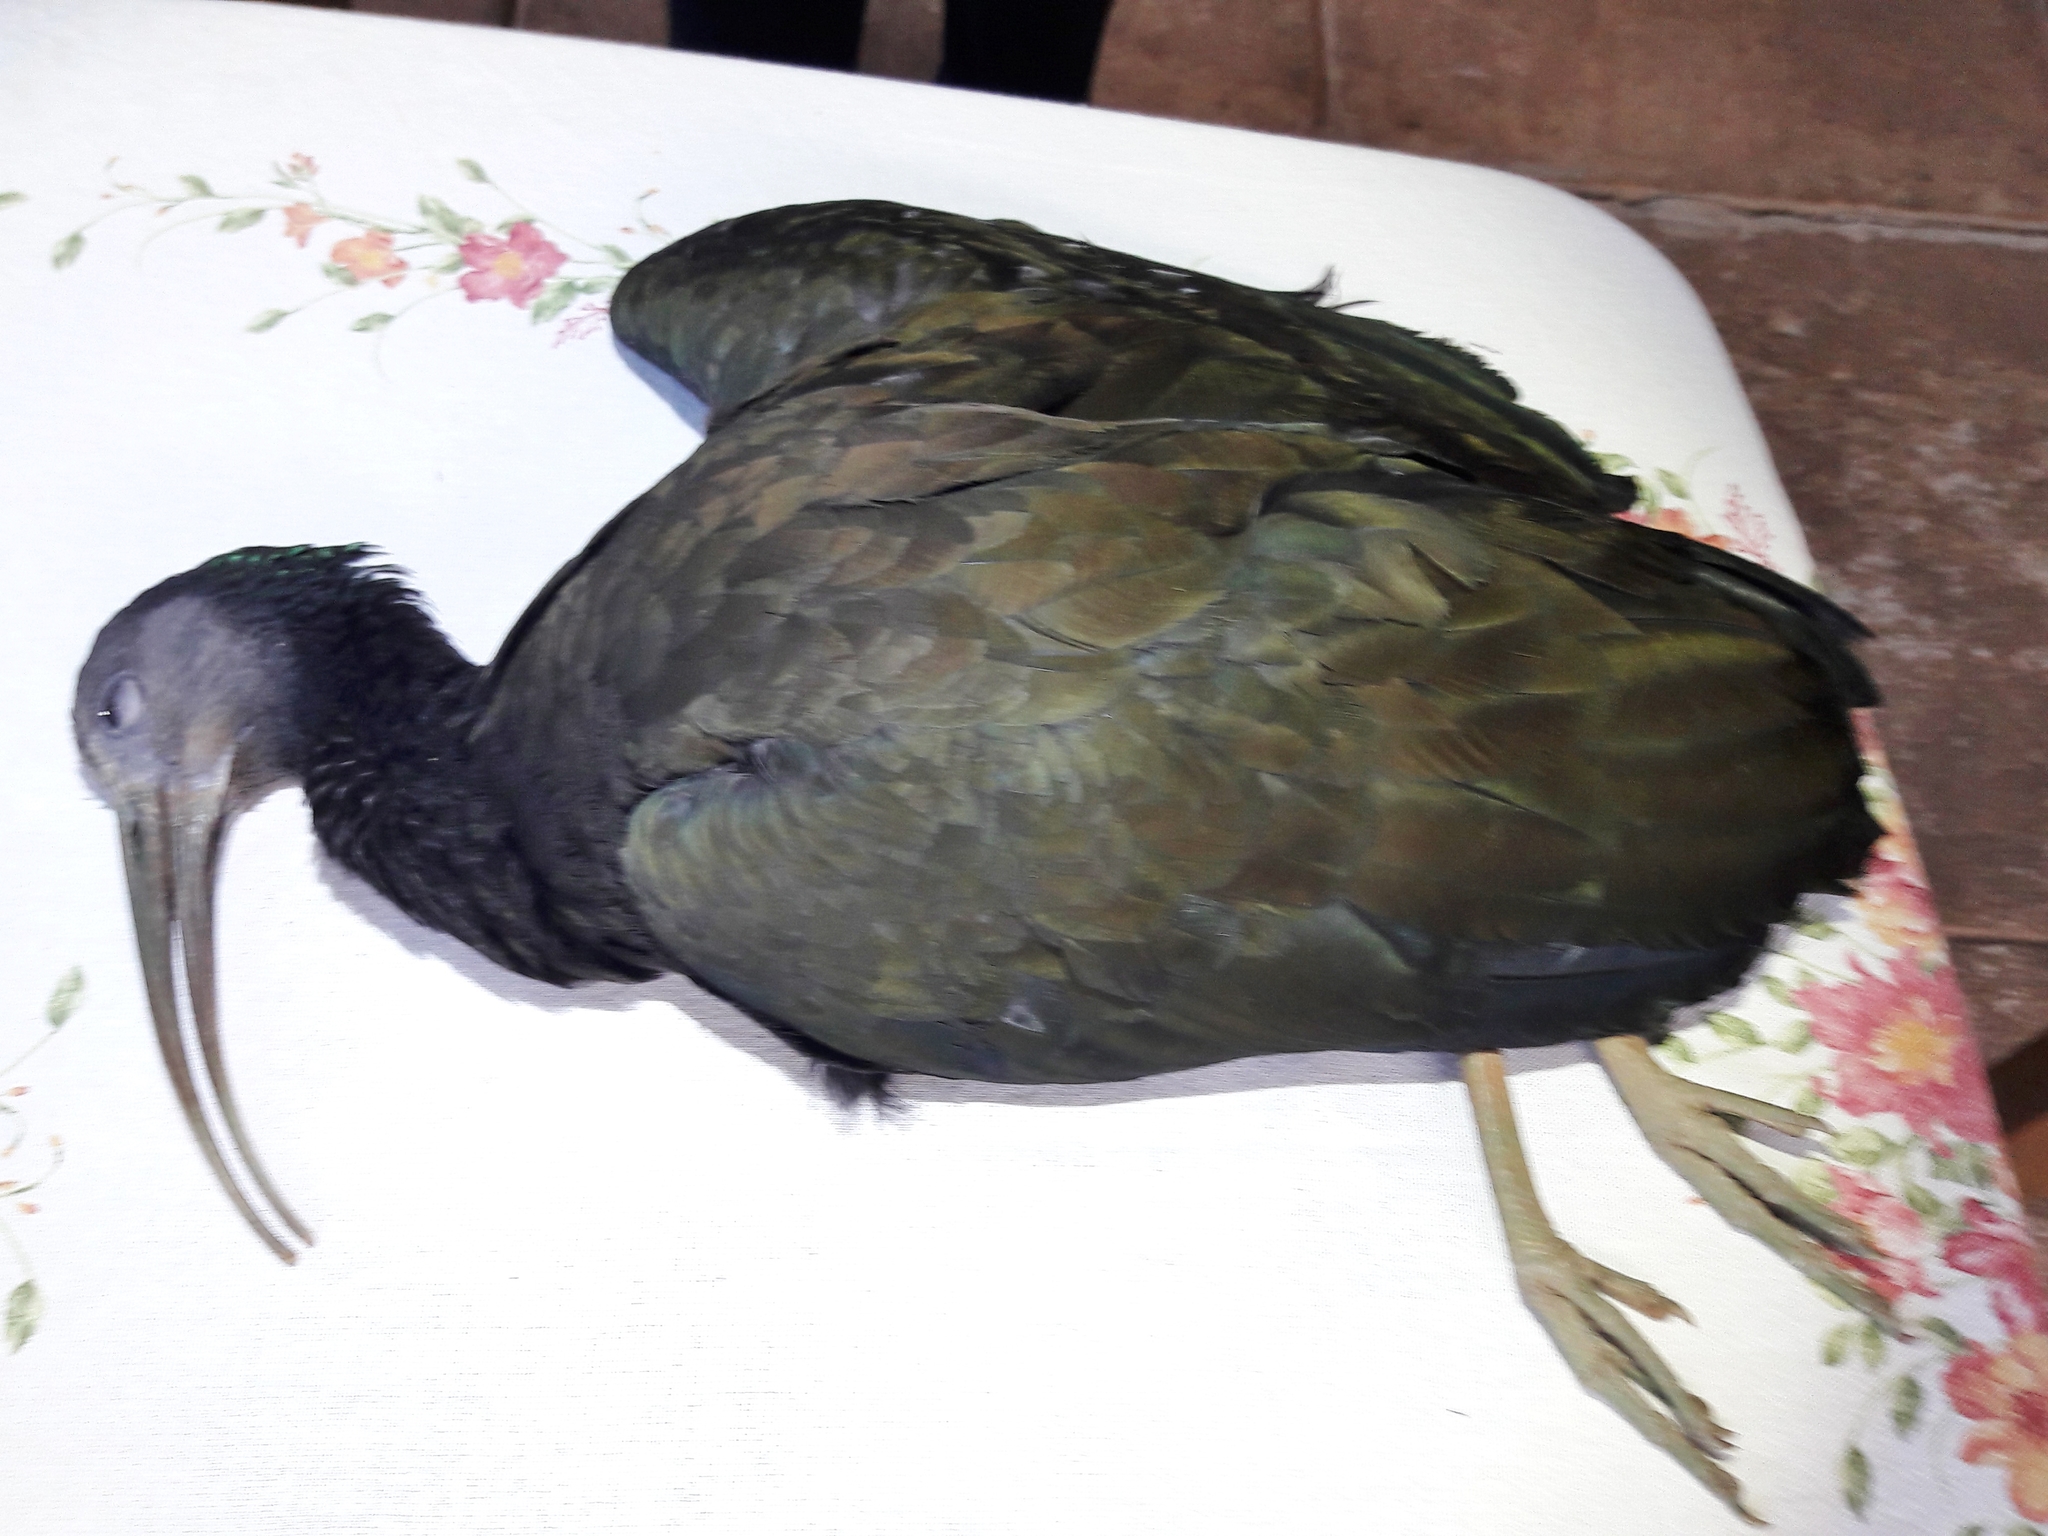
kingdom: Animalia
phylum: Chordata
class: Aves
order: Pelecaniformes
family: Threskiornithidae
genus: Mesembrinibis
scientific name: Mesembrinibis cayennensis
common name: Green ibis
